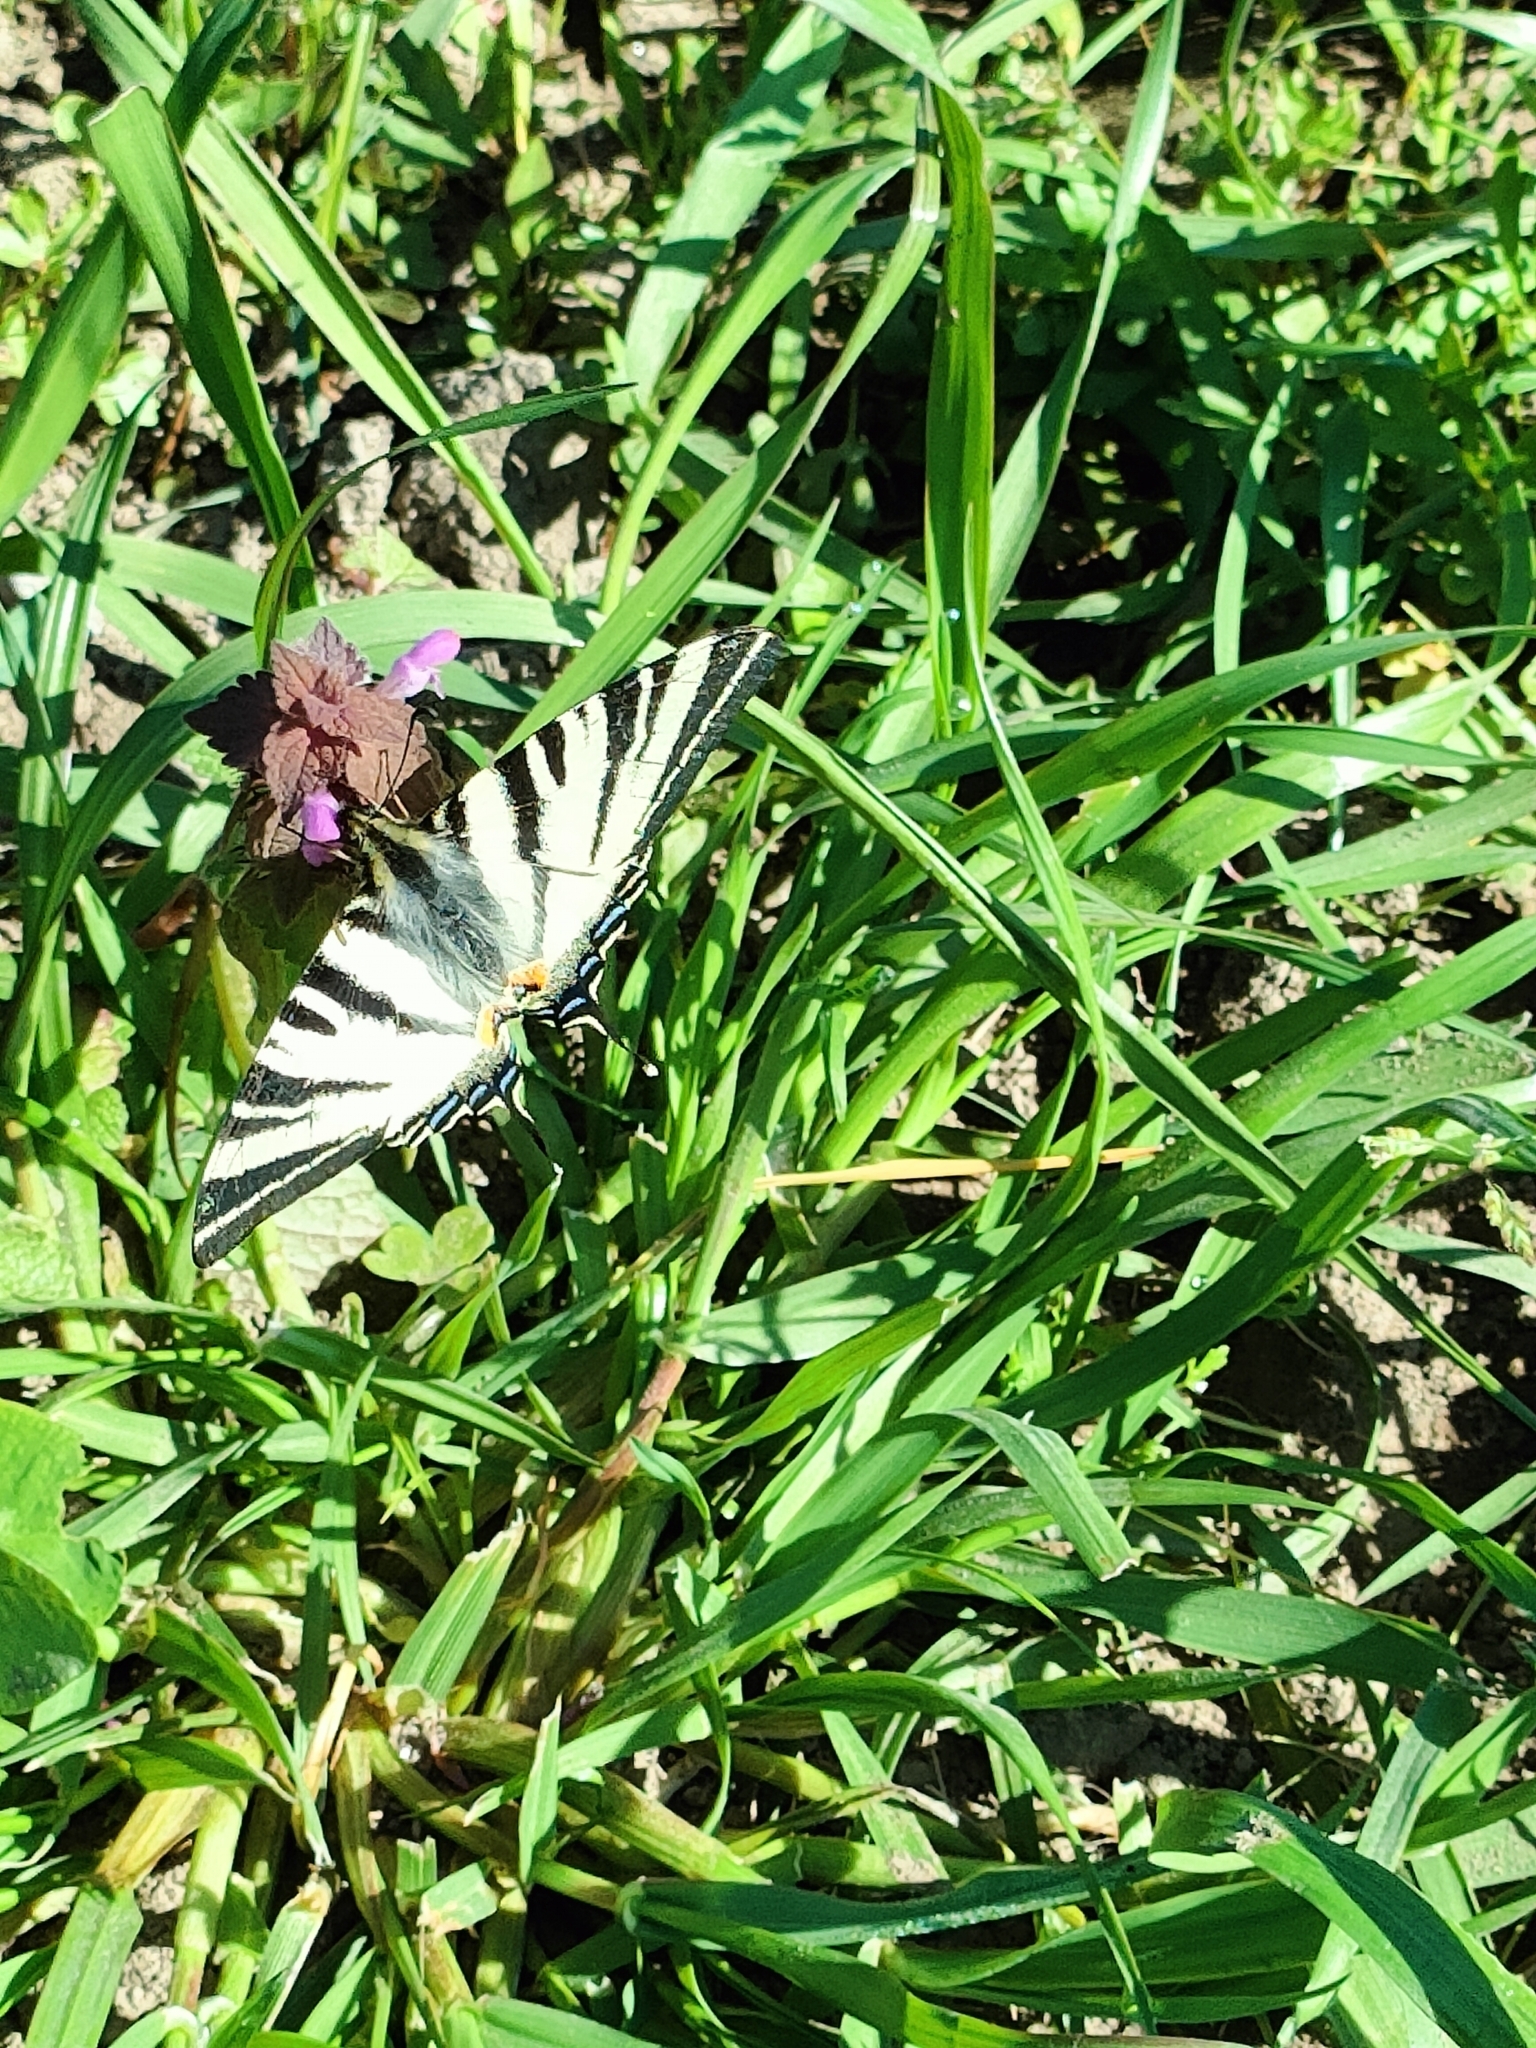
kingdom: Animalia
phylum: Arthropoda
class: Insecta
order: Lepidoptera
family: Papilionidae
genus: Iphiclides
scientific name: Iphiclides podalirius
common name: Scarce swallowtail
